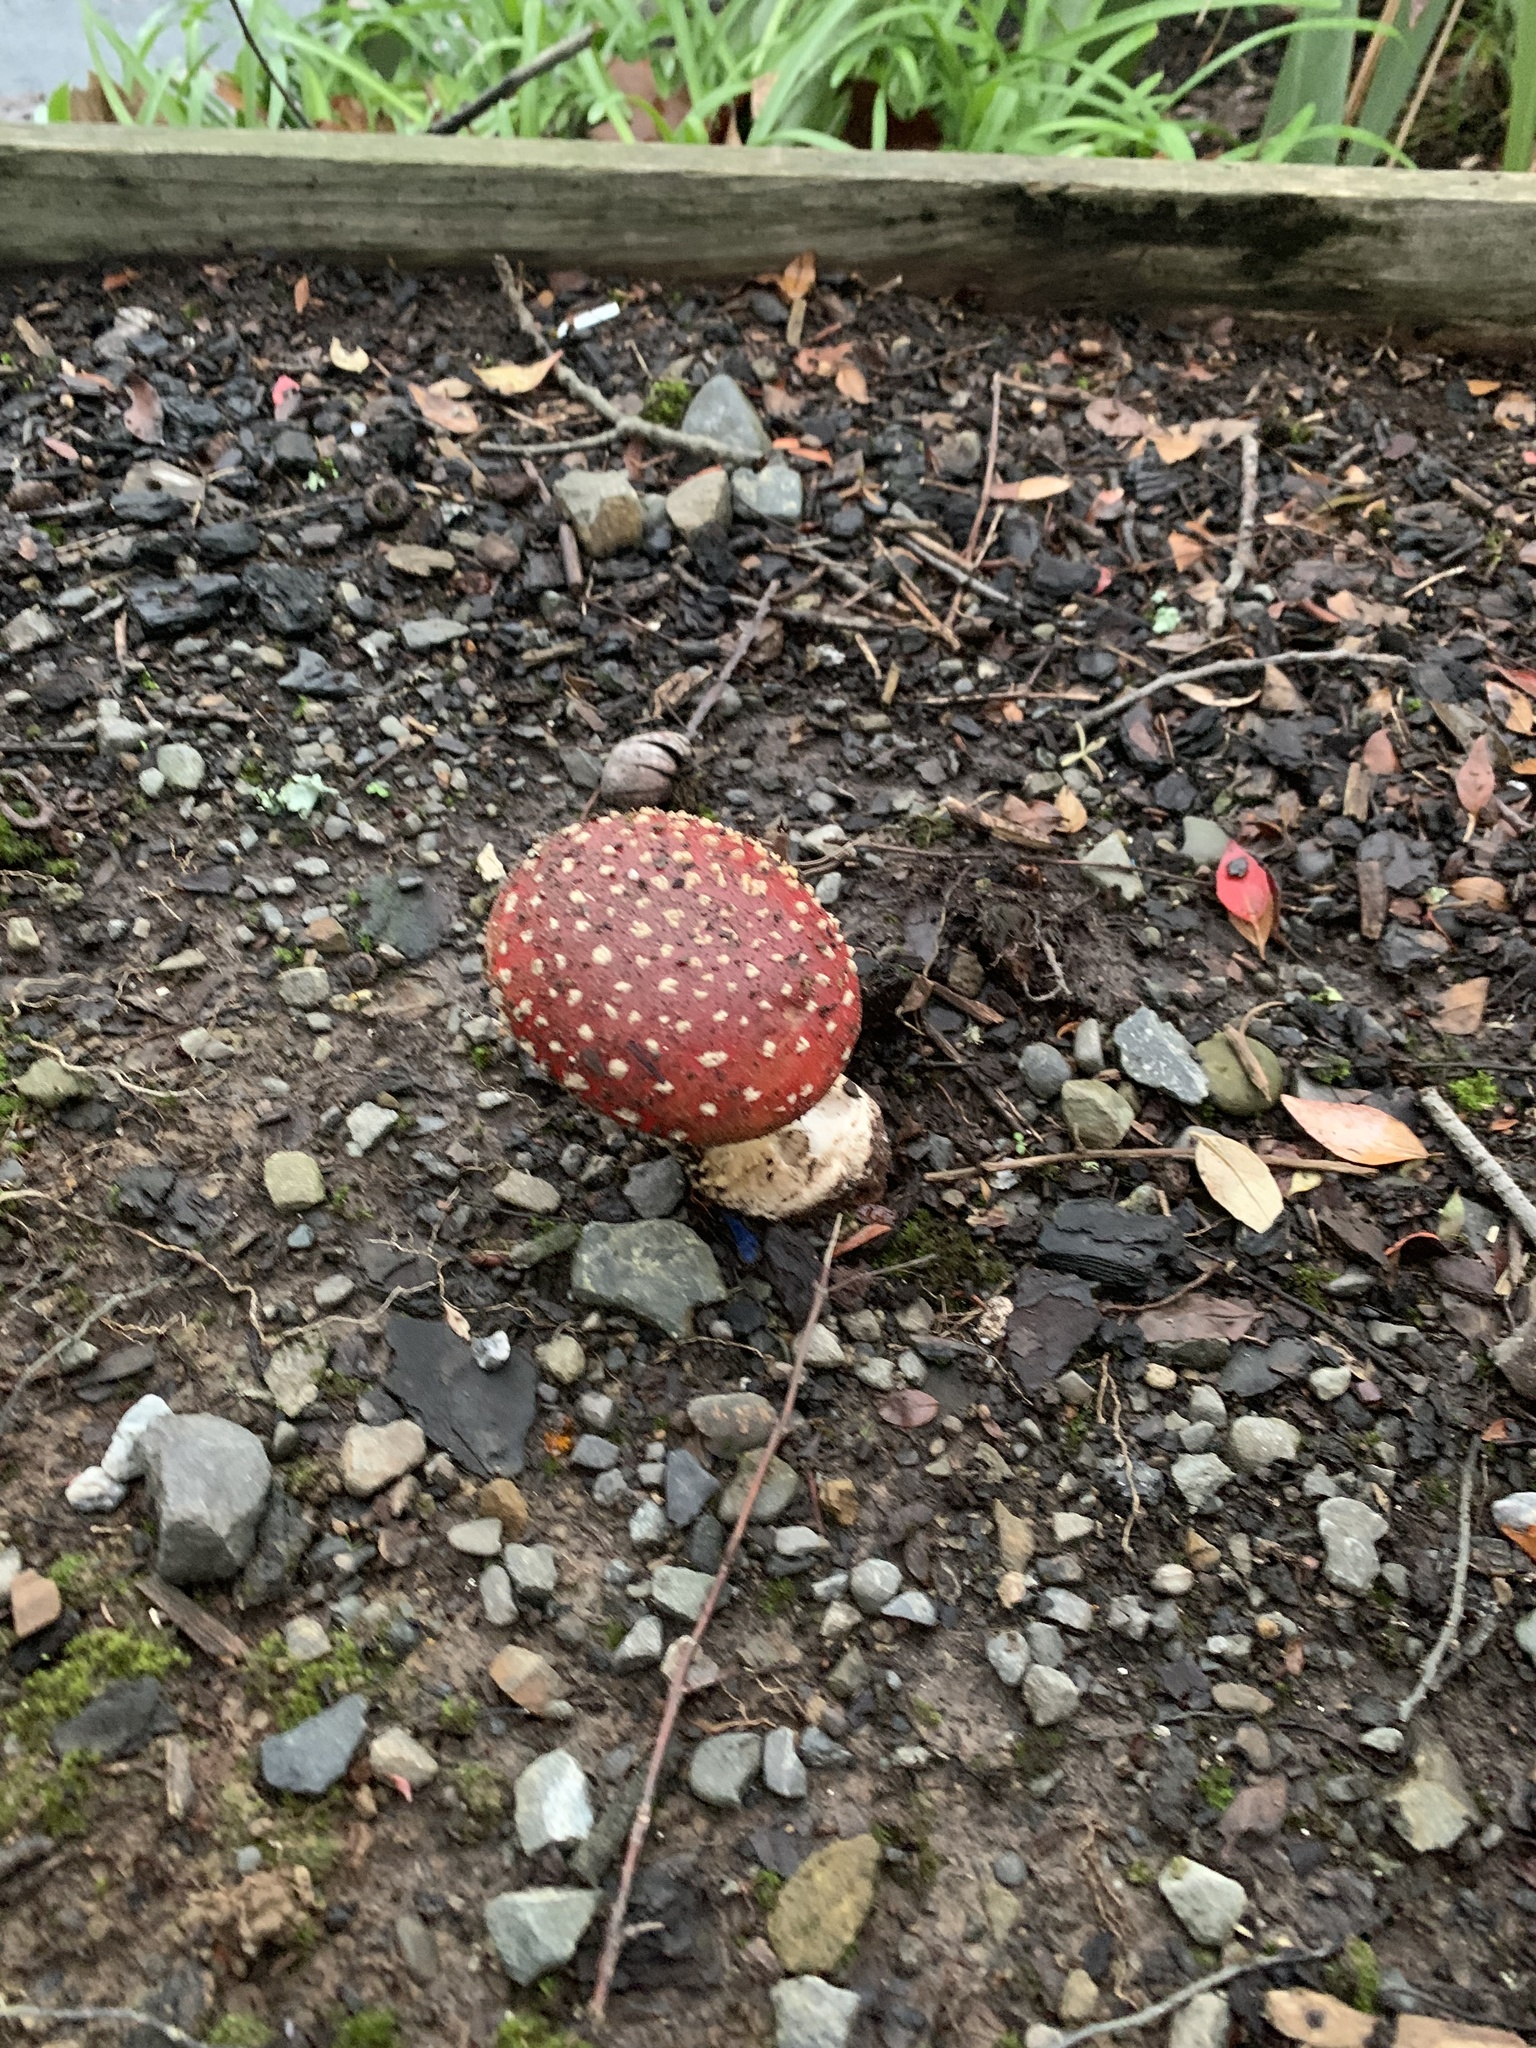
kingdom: Fungi
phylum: Basidiomycota
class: Agaricomycetes
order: Agaricales
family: Amanitaceae
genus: Amanita
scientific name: Amanita muscaria
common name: Fly agaric
